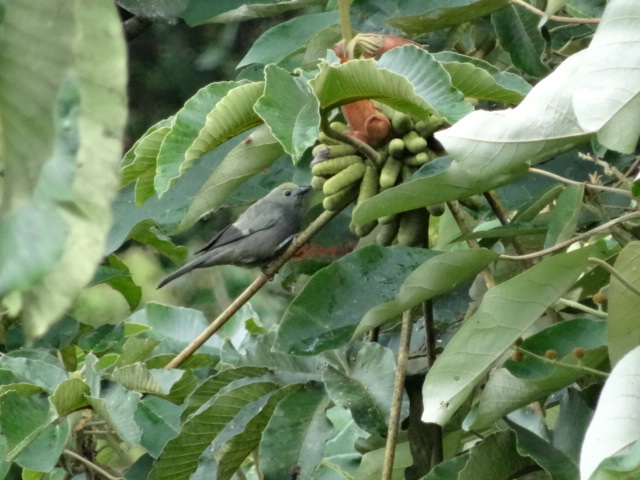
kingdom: Animalia
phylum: Chordata
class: Aves
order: Passeriformes
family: Thraupidae
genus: Thraupis
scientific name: Thraupis palmarum
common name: Palm tanager
